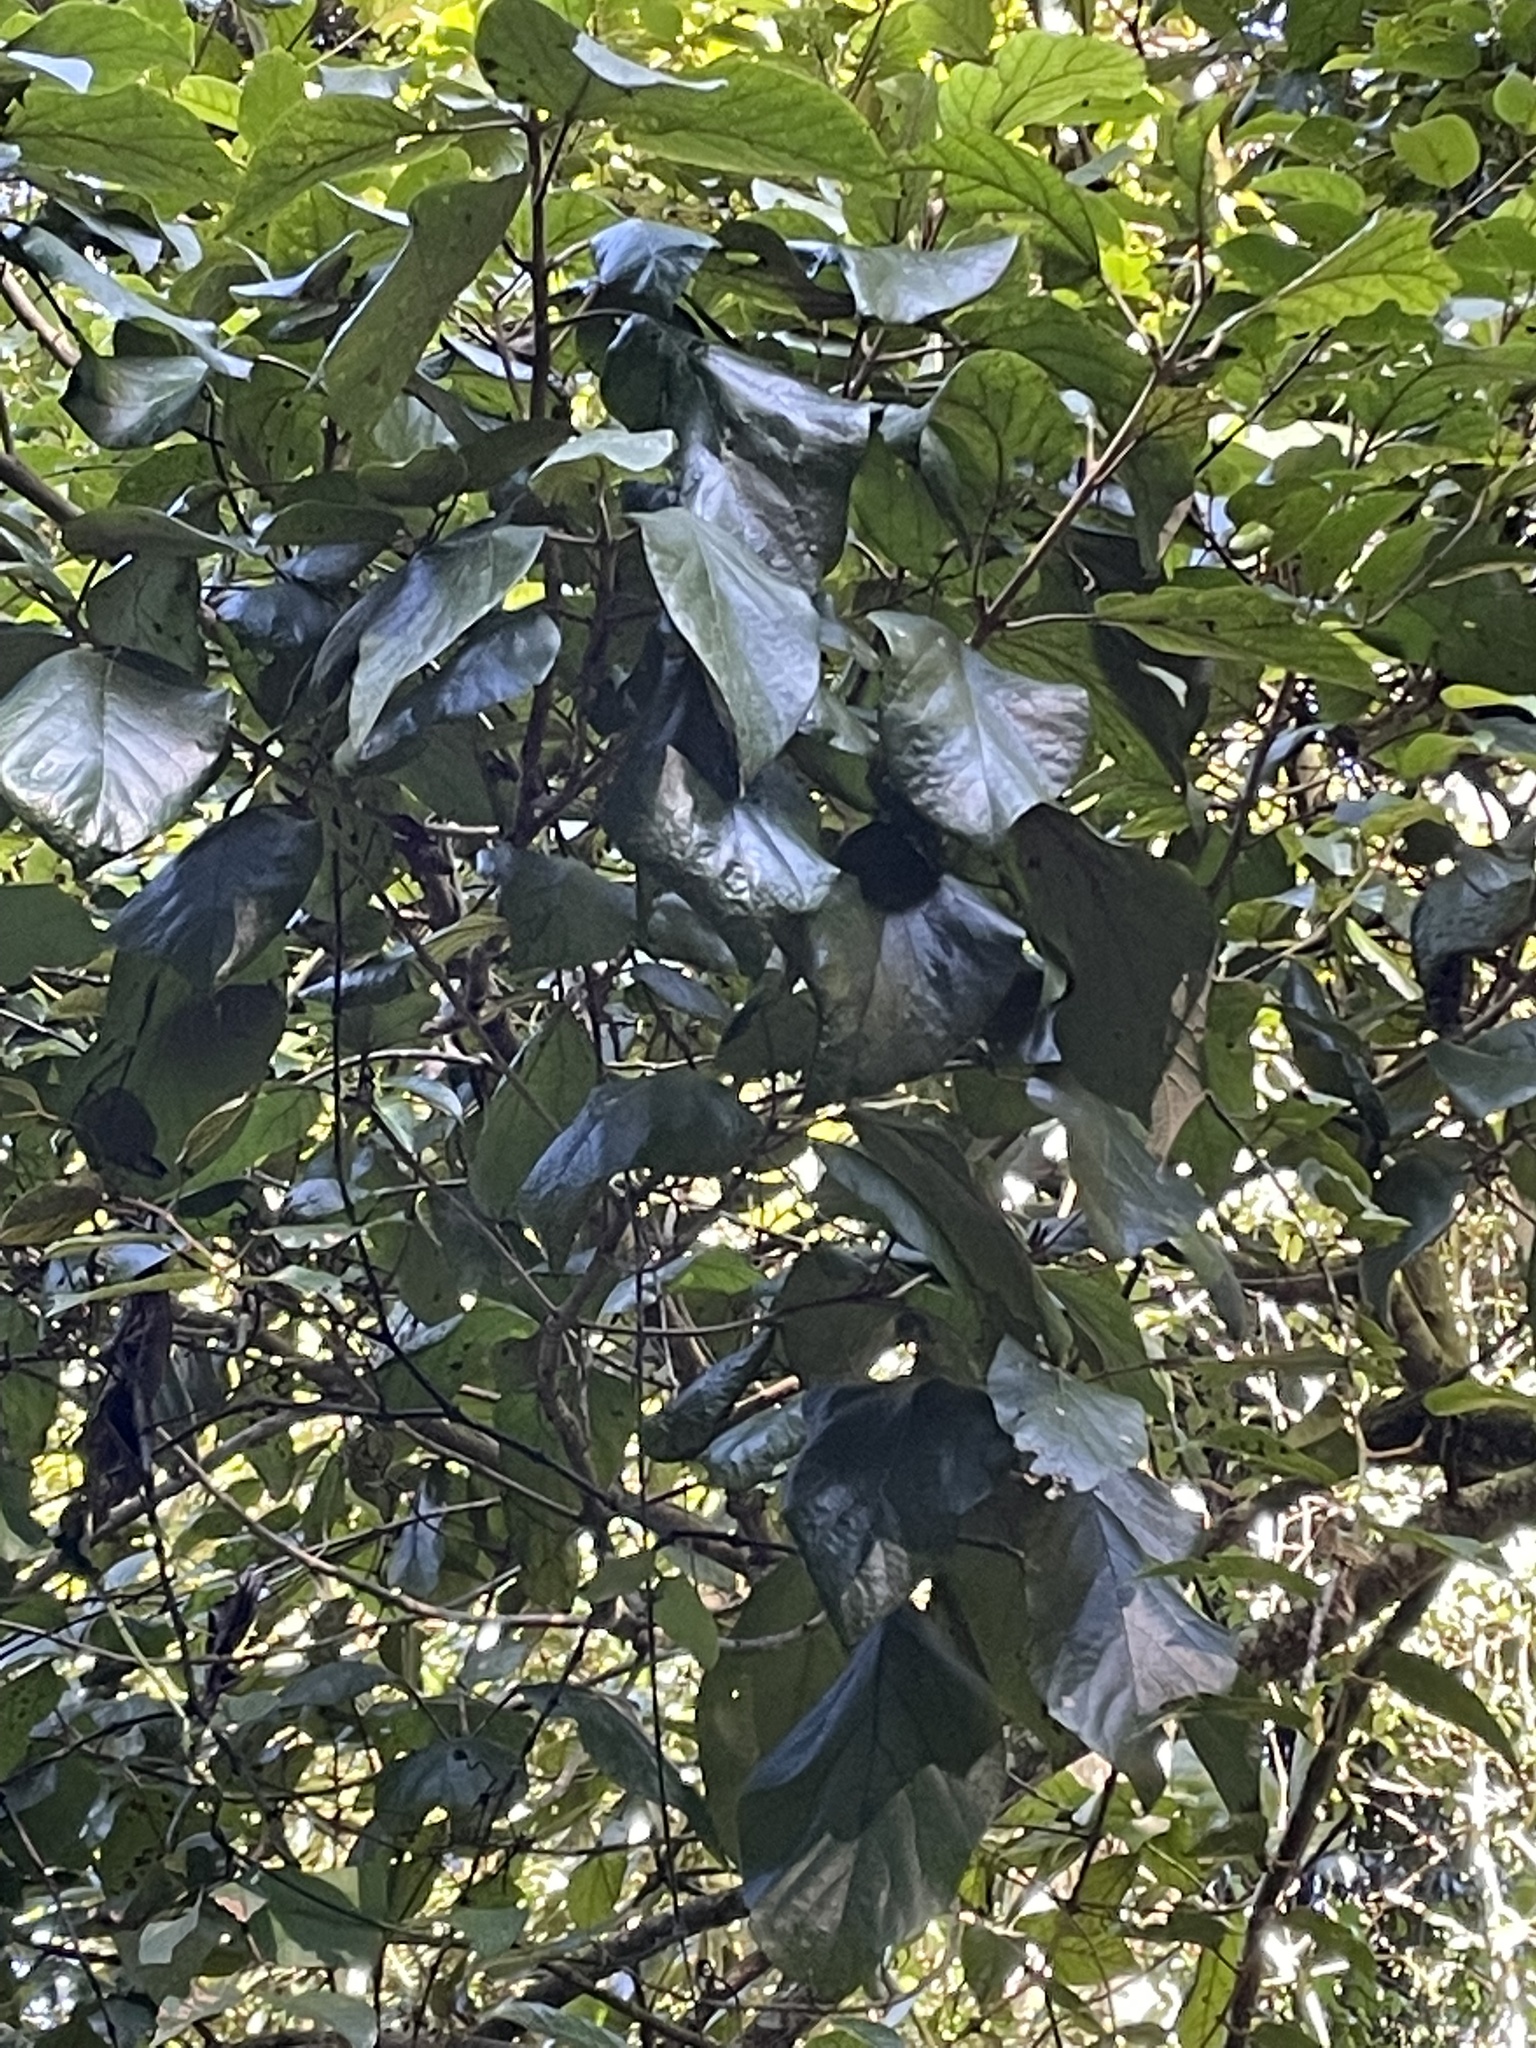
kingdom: Plantae
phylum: Tracheophyta
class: Magnoliopsida
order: Lamiales
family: Lamiaceae
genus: Gmelina
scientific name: Gmelina leichhardtii
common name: Queensland-beech
